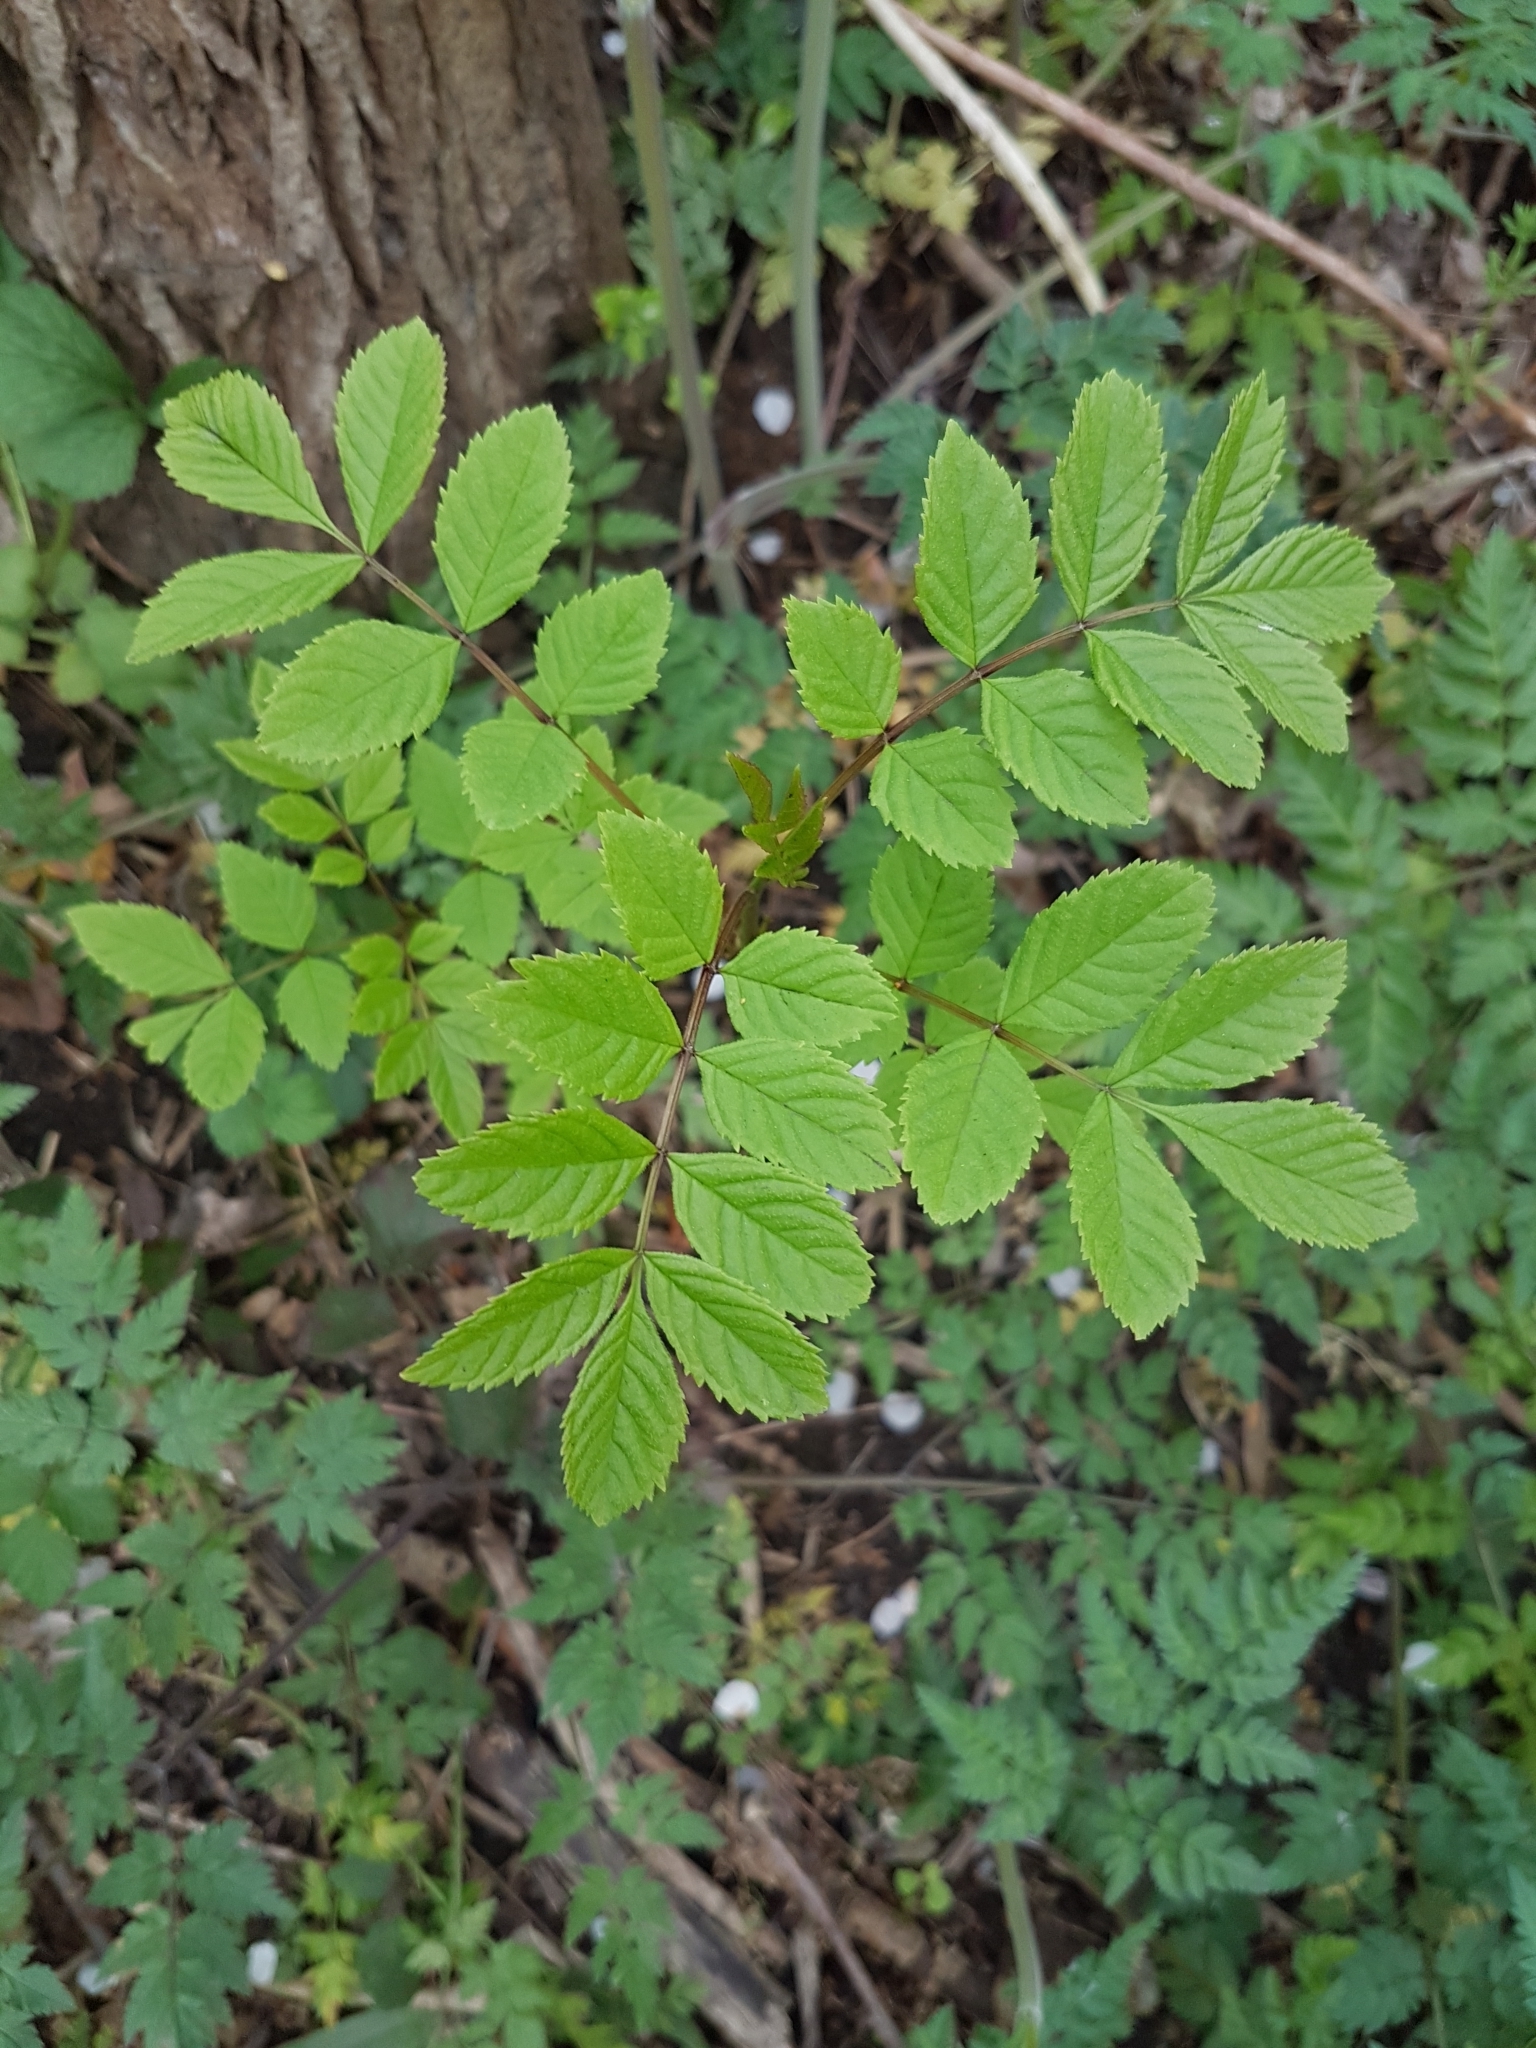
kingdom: Plantae
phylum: Tracheophyta
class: Magnoliopsida
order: Lamiales
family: Oleaceae
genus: Fraxinus
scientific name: Fraxinus excelsior
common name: European ash
